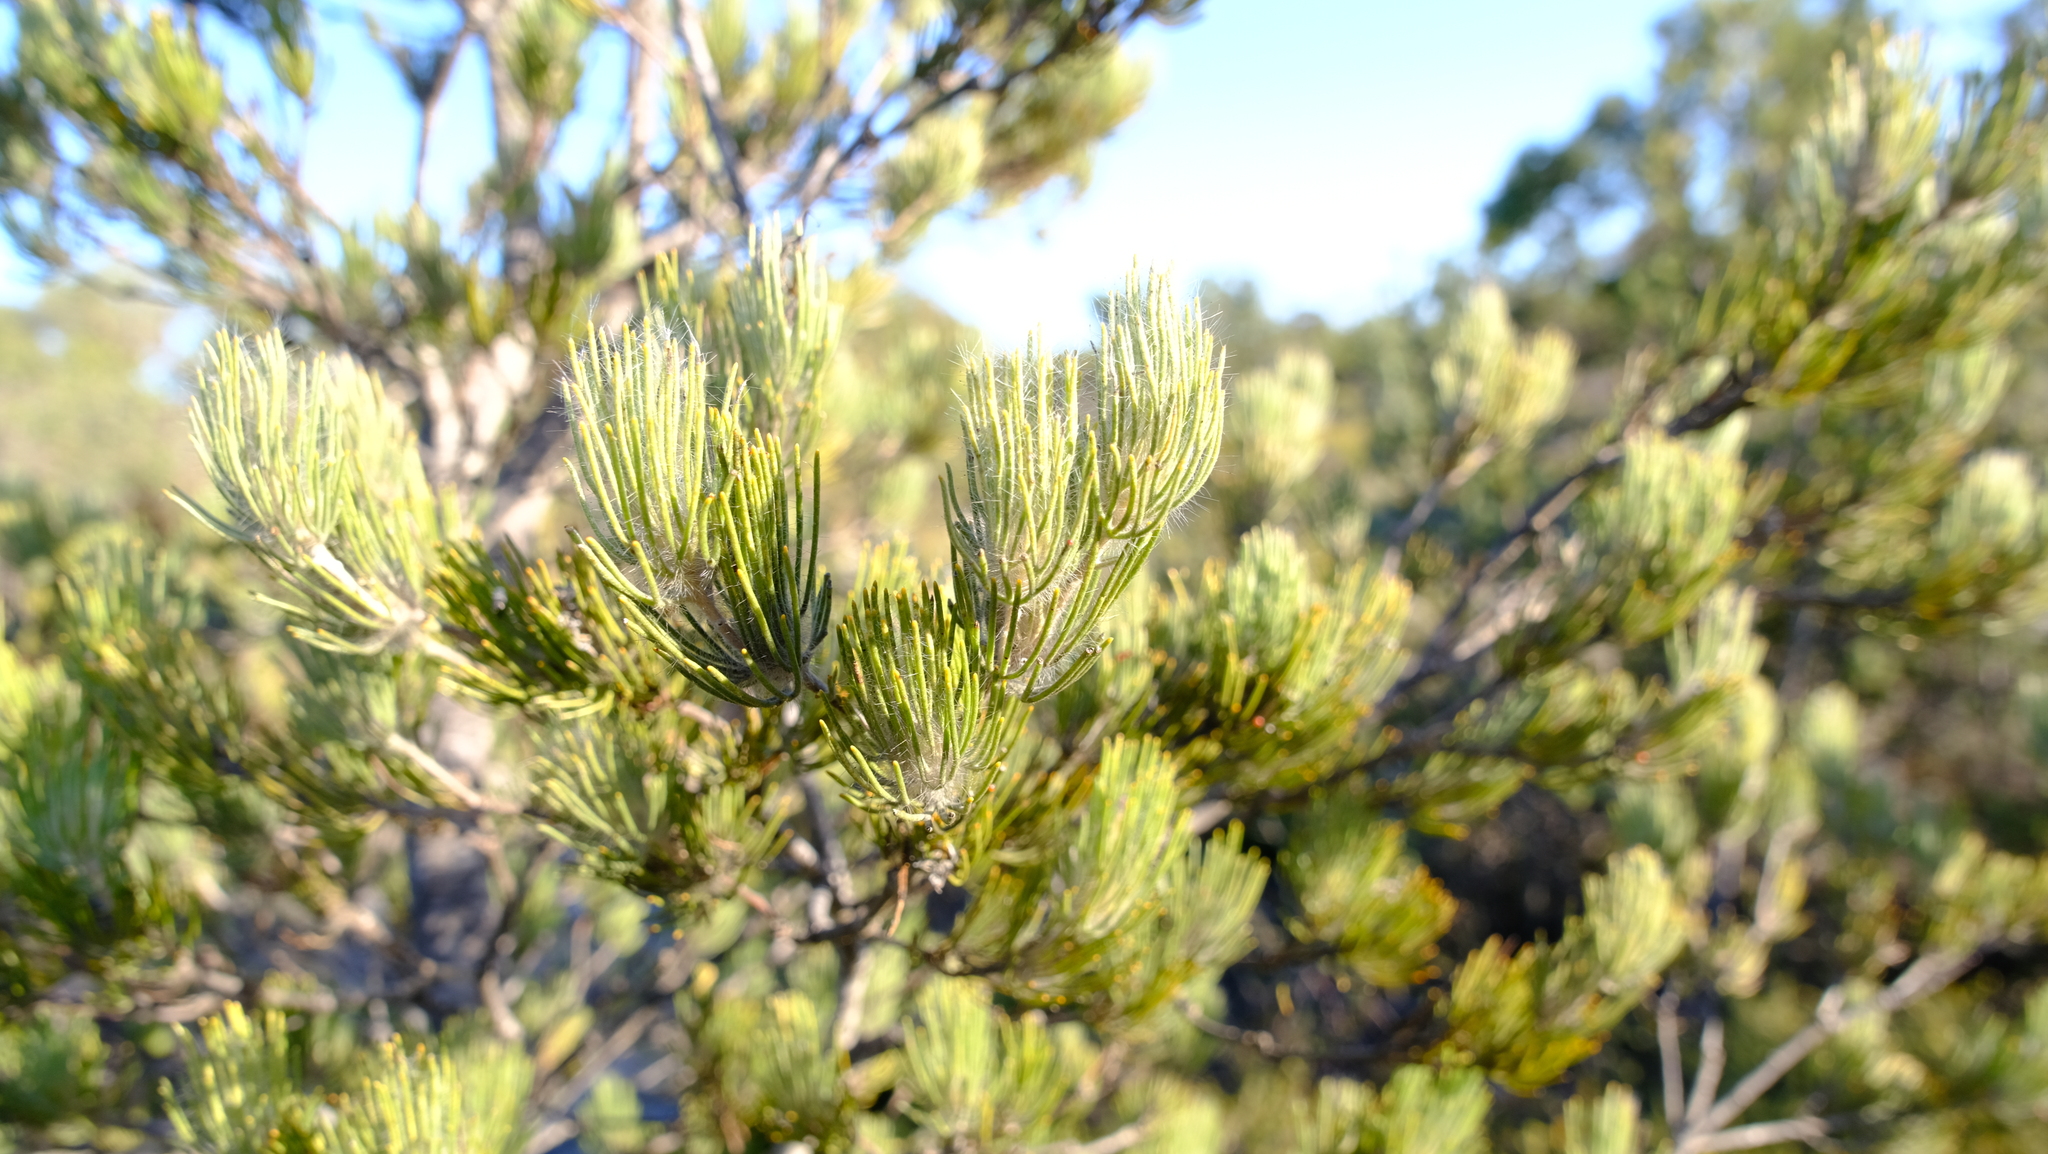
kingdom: Plantae
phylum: Tracheophyta
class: Magnoliopsida
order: Proteales
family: Proteaceae
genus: Adenanthos
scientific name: Adenanthos cygnorum
